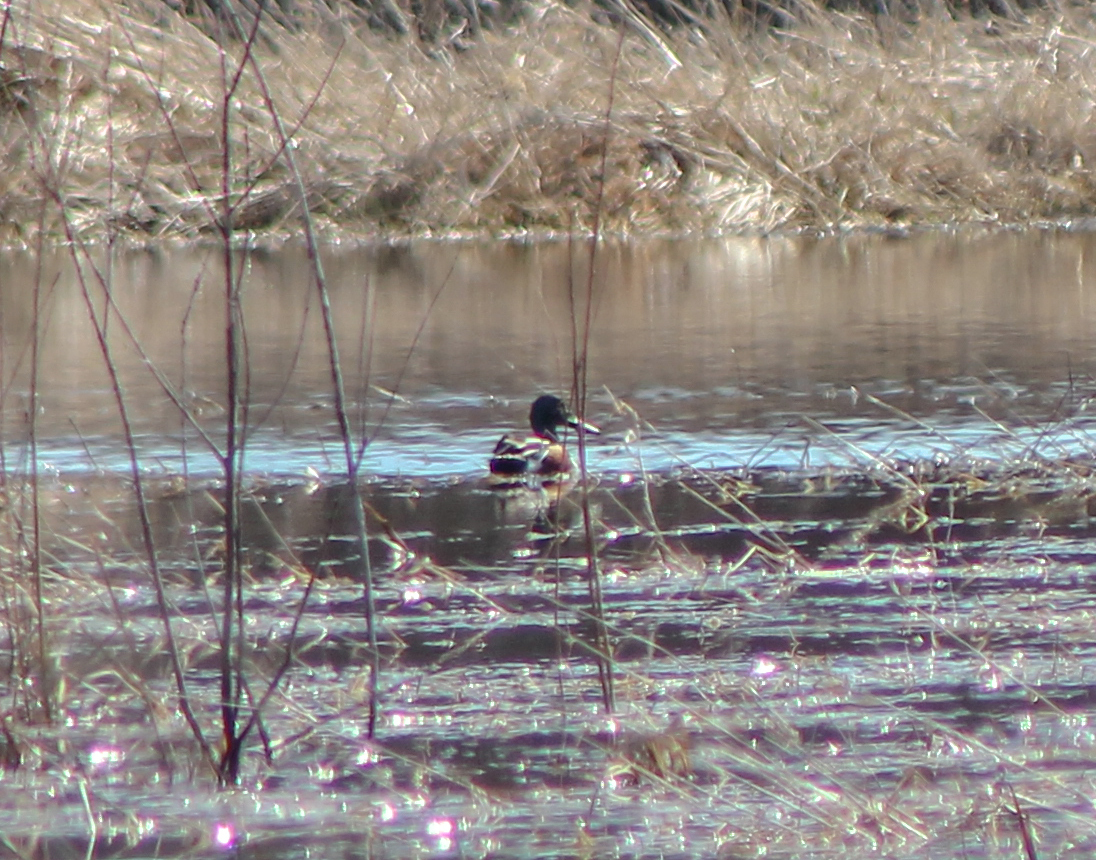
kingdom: Animalia
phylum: Chordata
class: Aves
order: Anseriformes
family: Anatidae
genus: Spatula
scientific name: Spatula clypeata
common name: Northern shoveler
